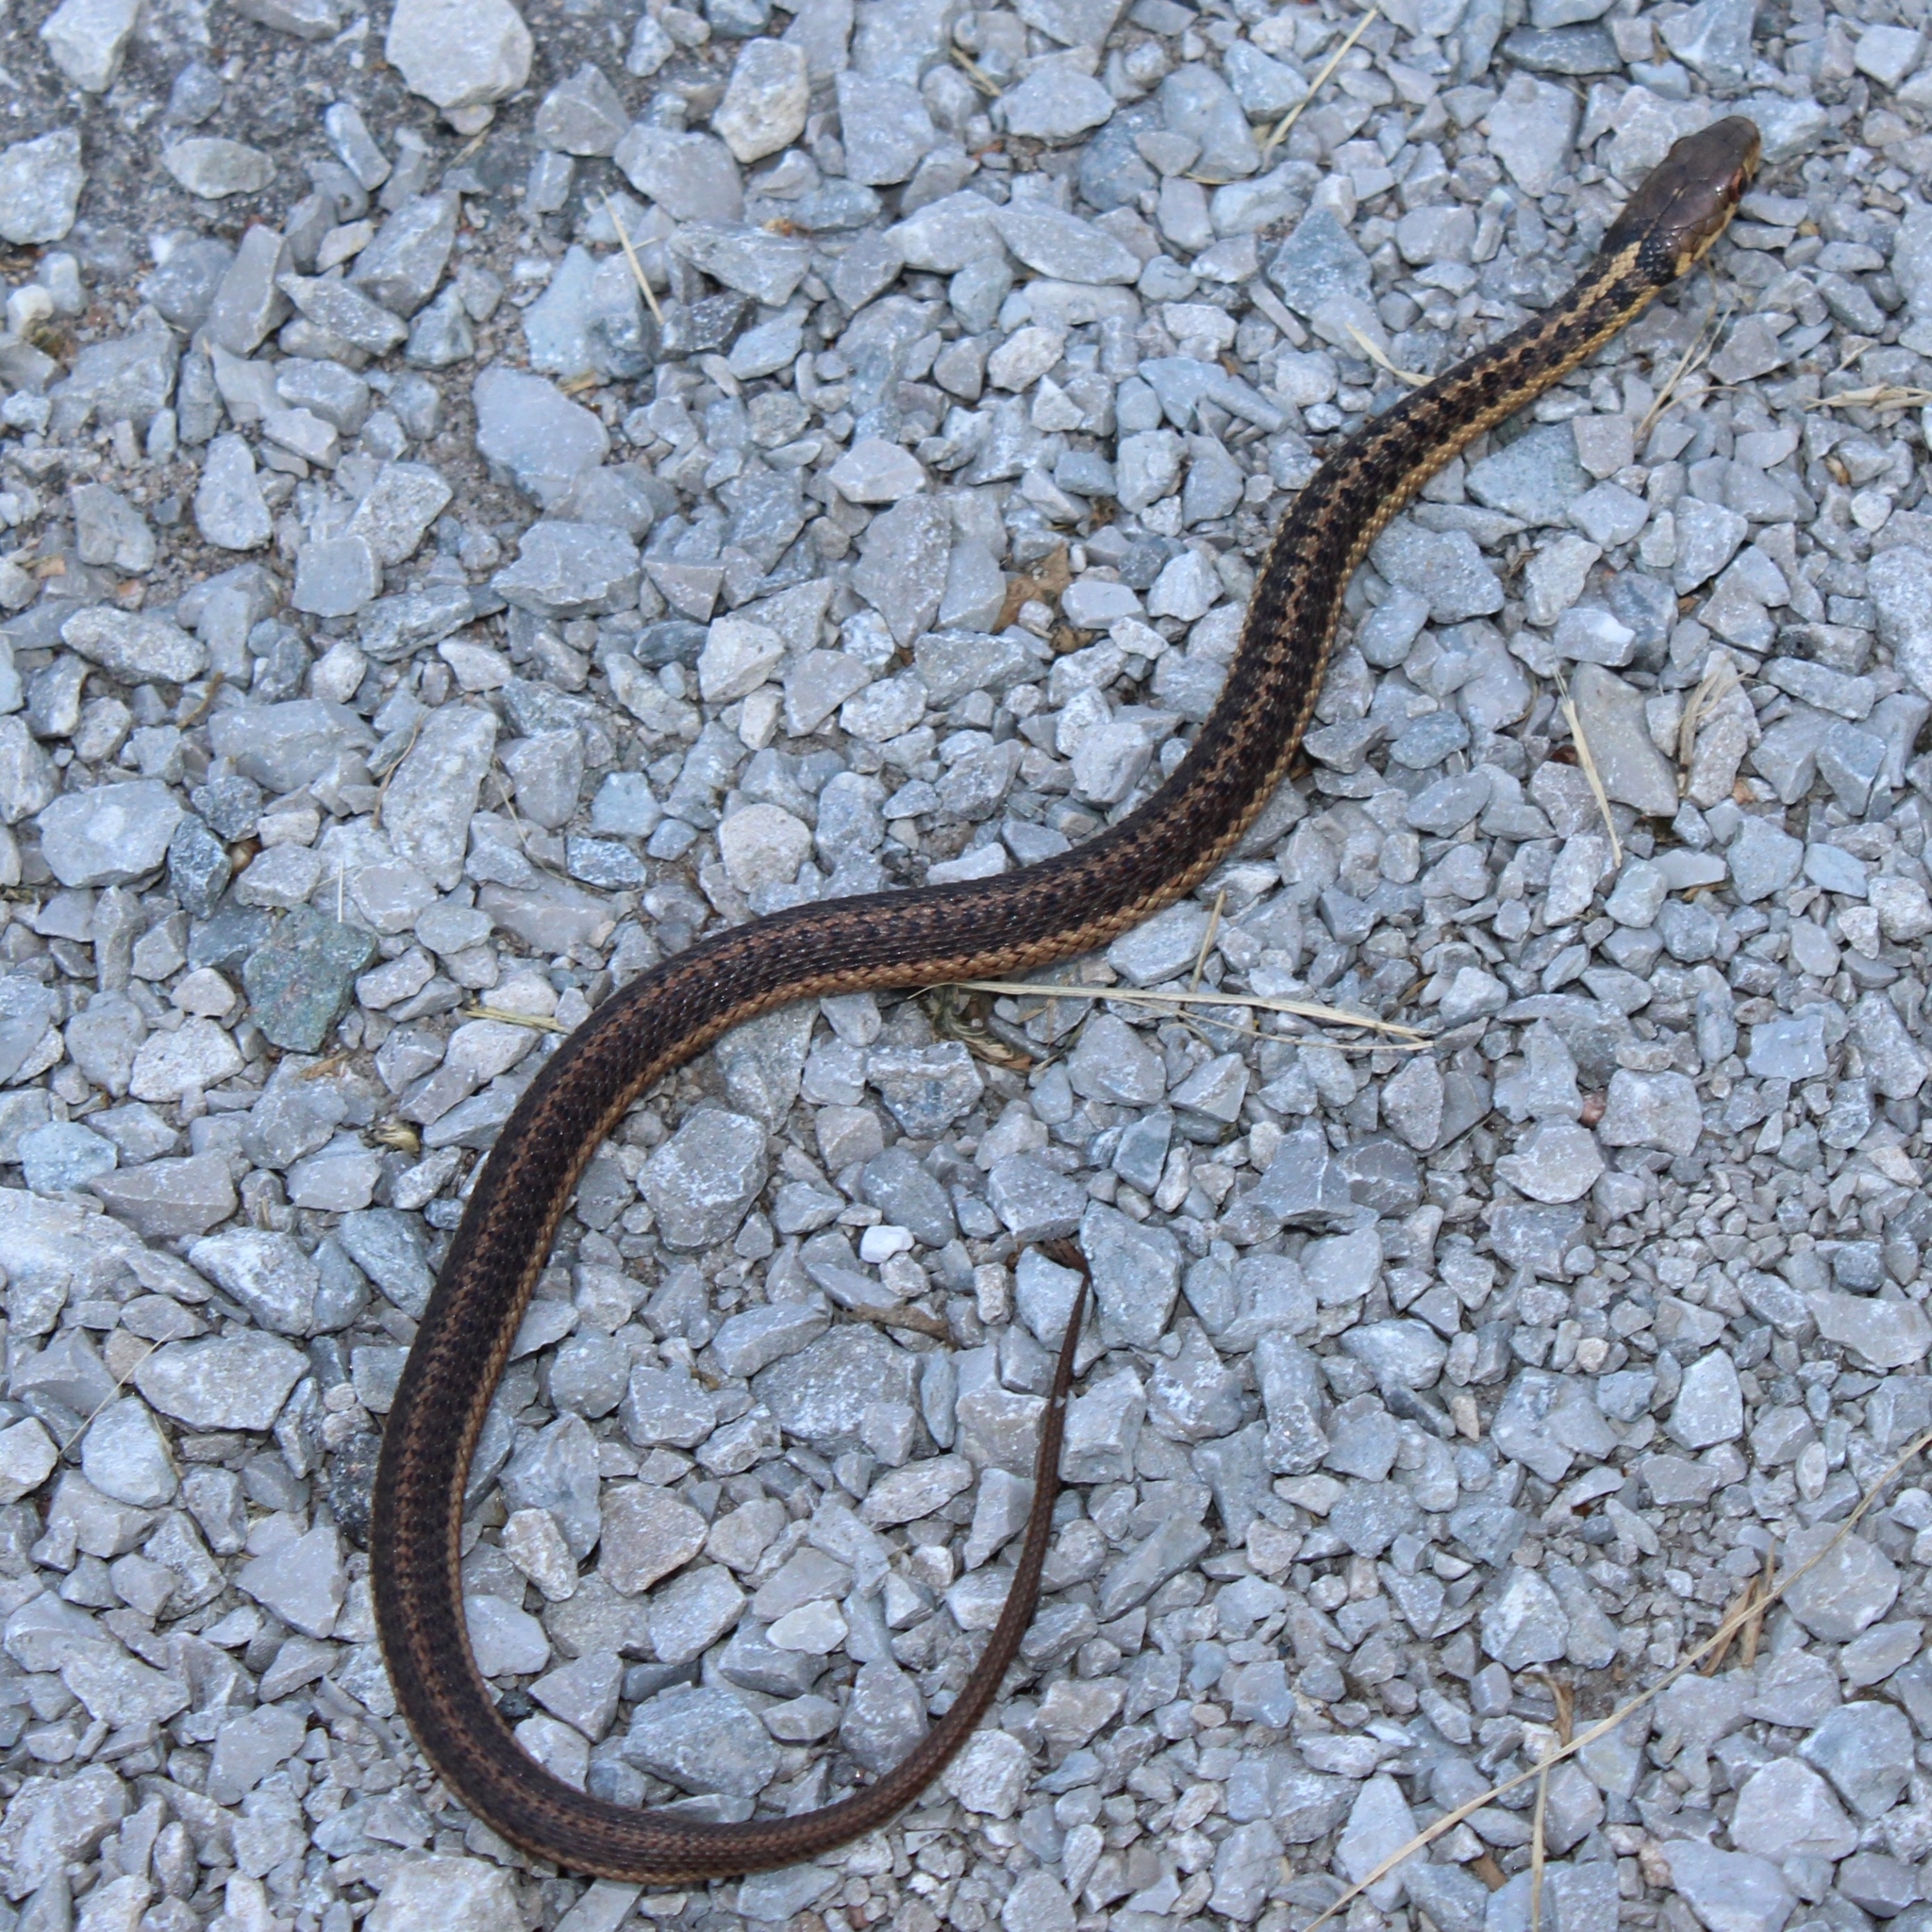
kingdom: Animalia
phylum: Chordata
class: Squamata
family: Colubridae
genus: Thamnophis
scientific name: Thamnophis sirtalis
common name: Common garter snake
